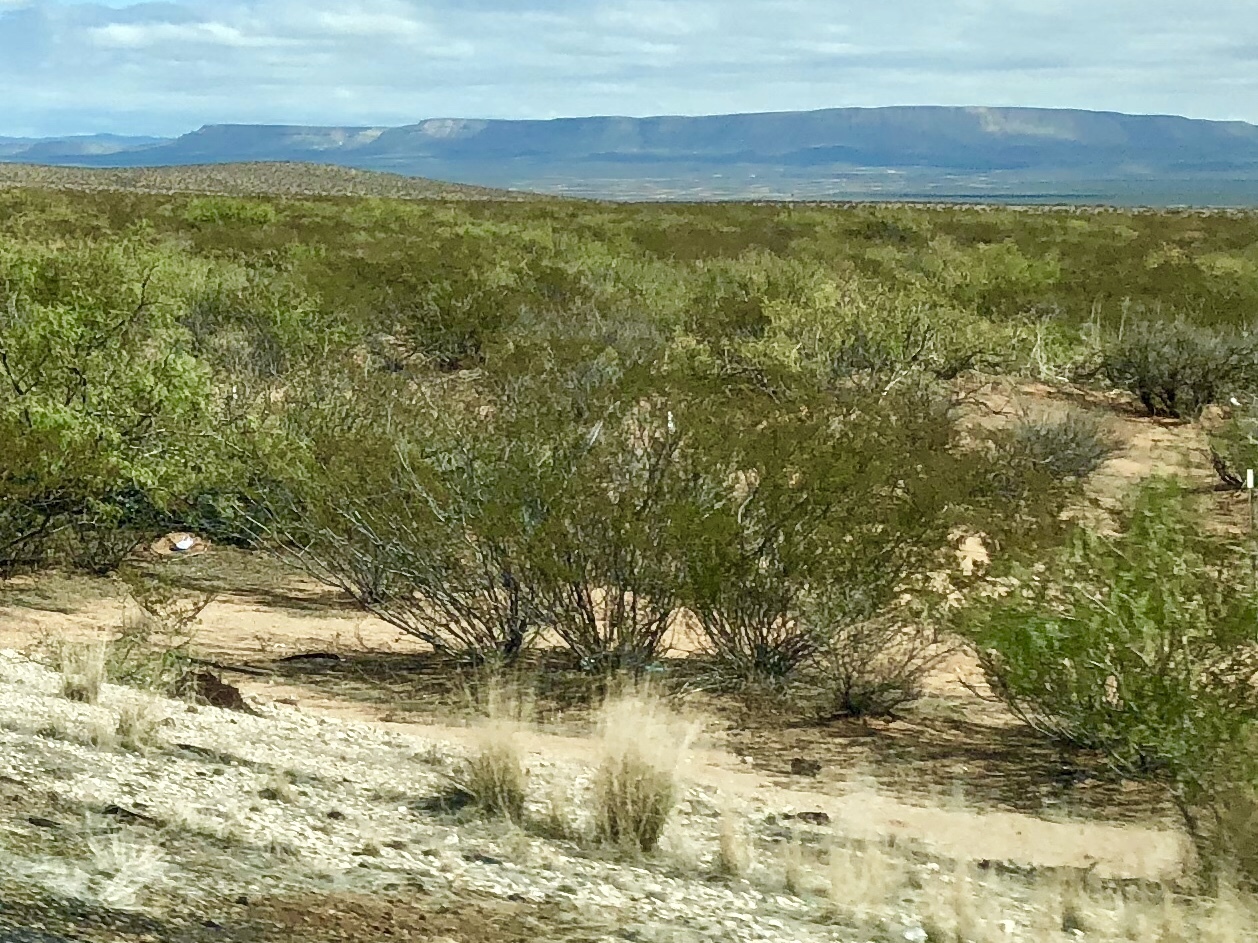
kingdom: Plantae
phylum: Tracheophyta
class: Magnoliopsida
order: Zygophyllales
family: Zygophyllaceae
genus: Larrea
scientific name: Larrea tridentata
